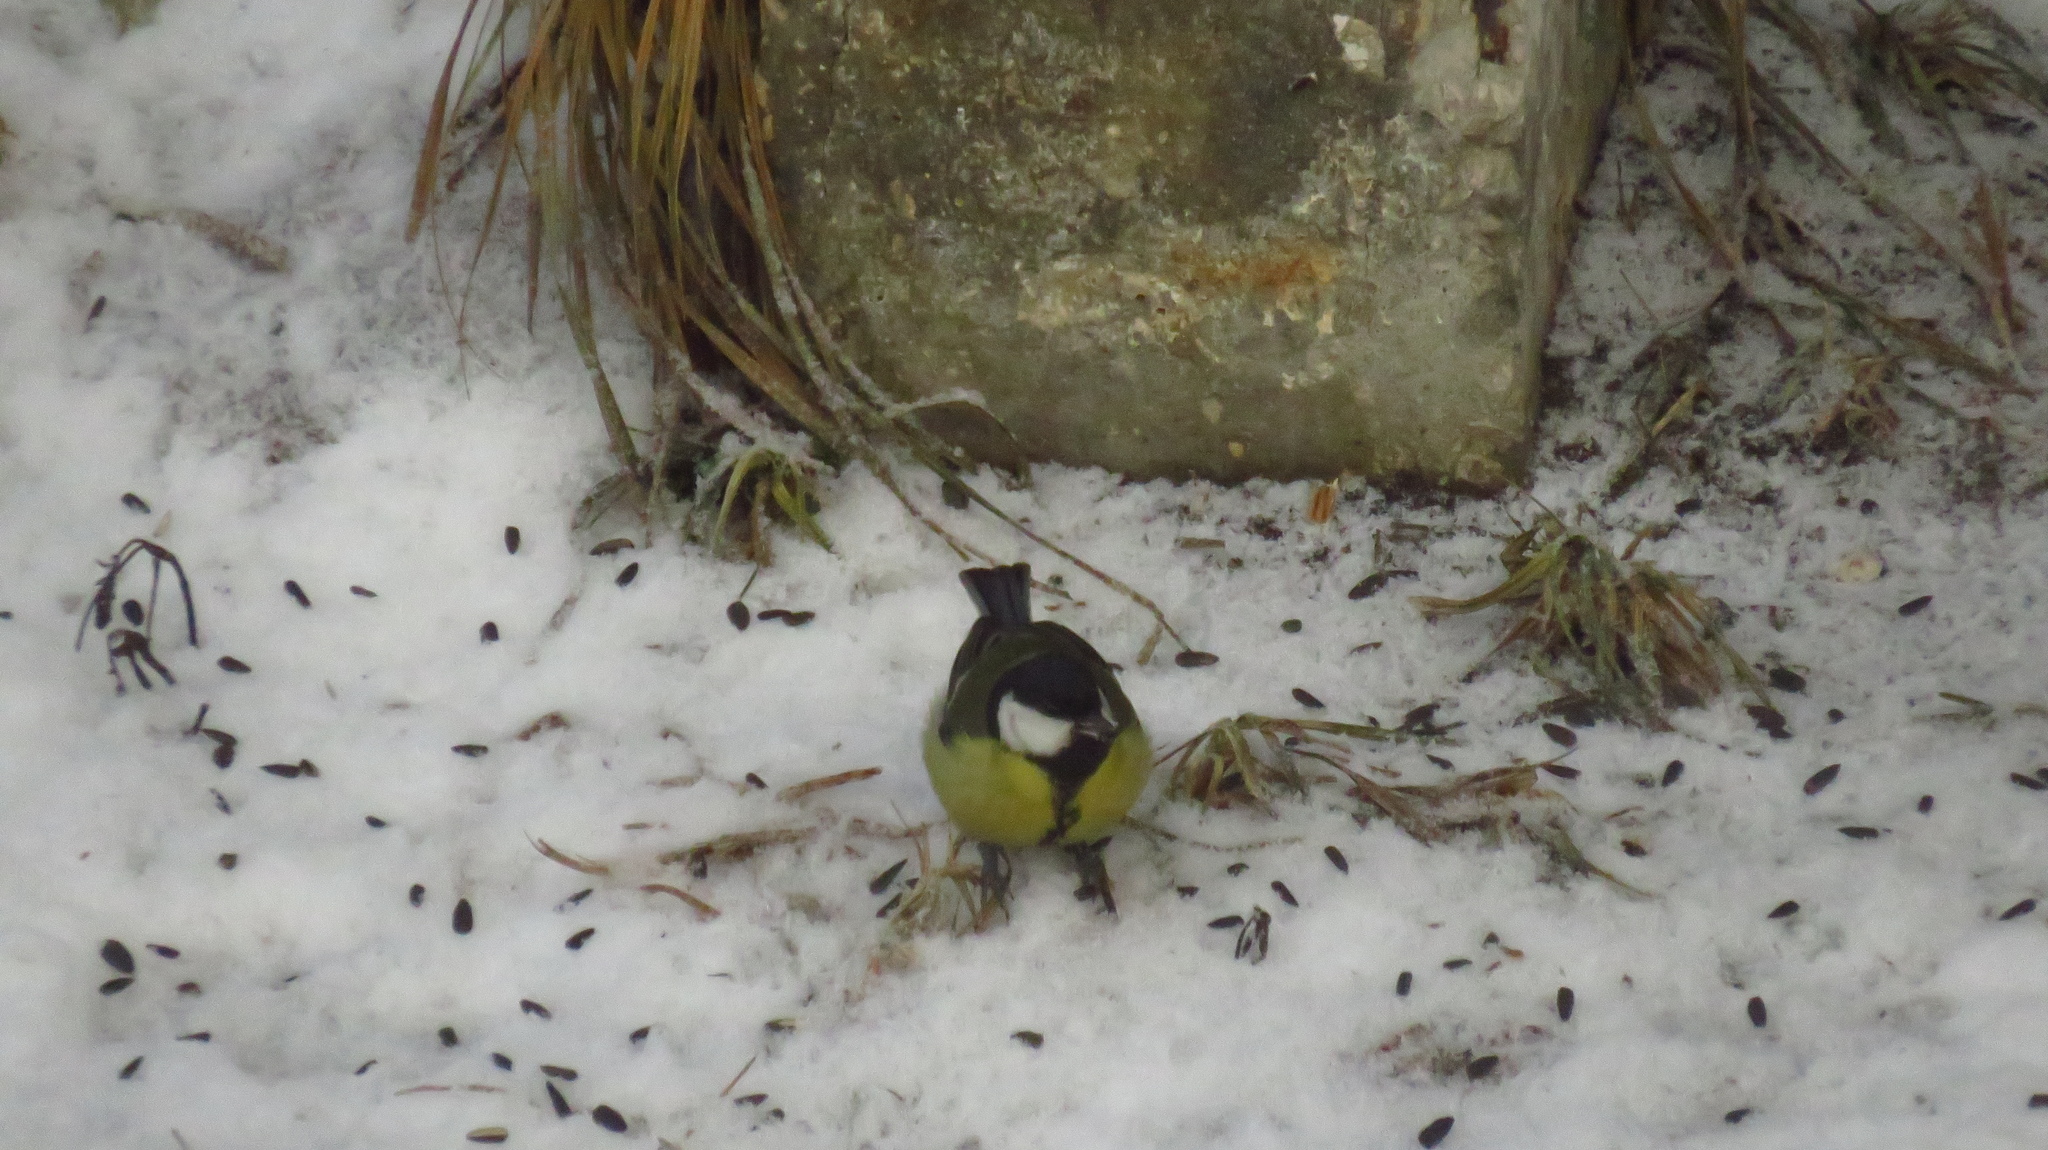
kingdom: Animalia
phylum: Chordata
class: Aves
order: Passeriformes
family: Paridae
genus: Parus
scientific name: Parus major
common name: Great tit
